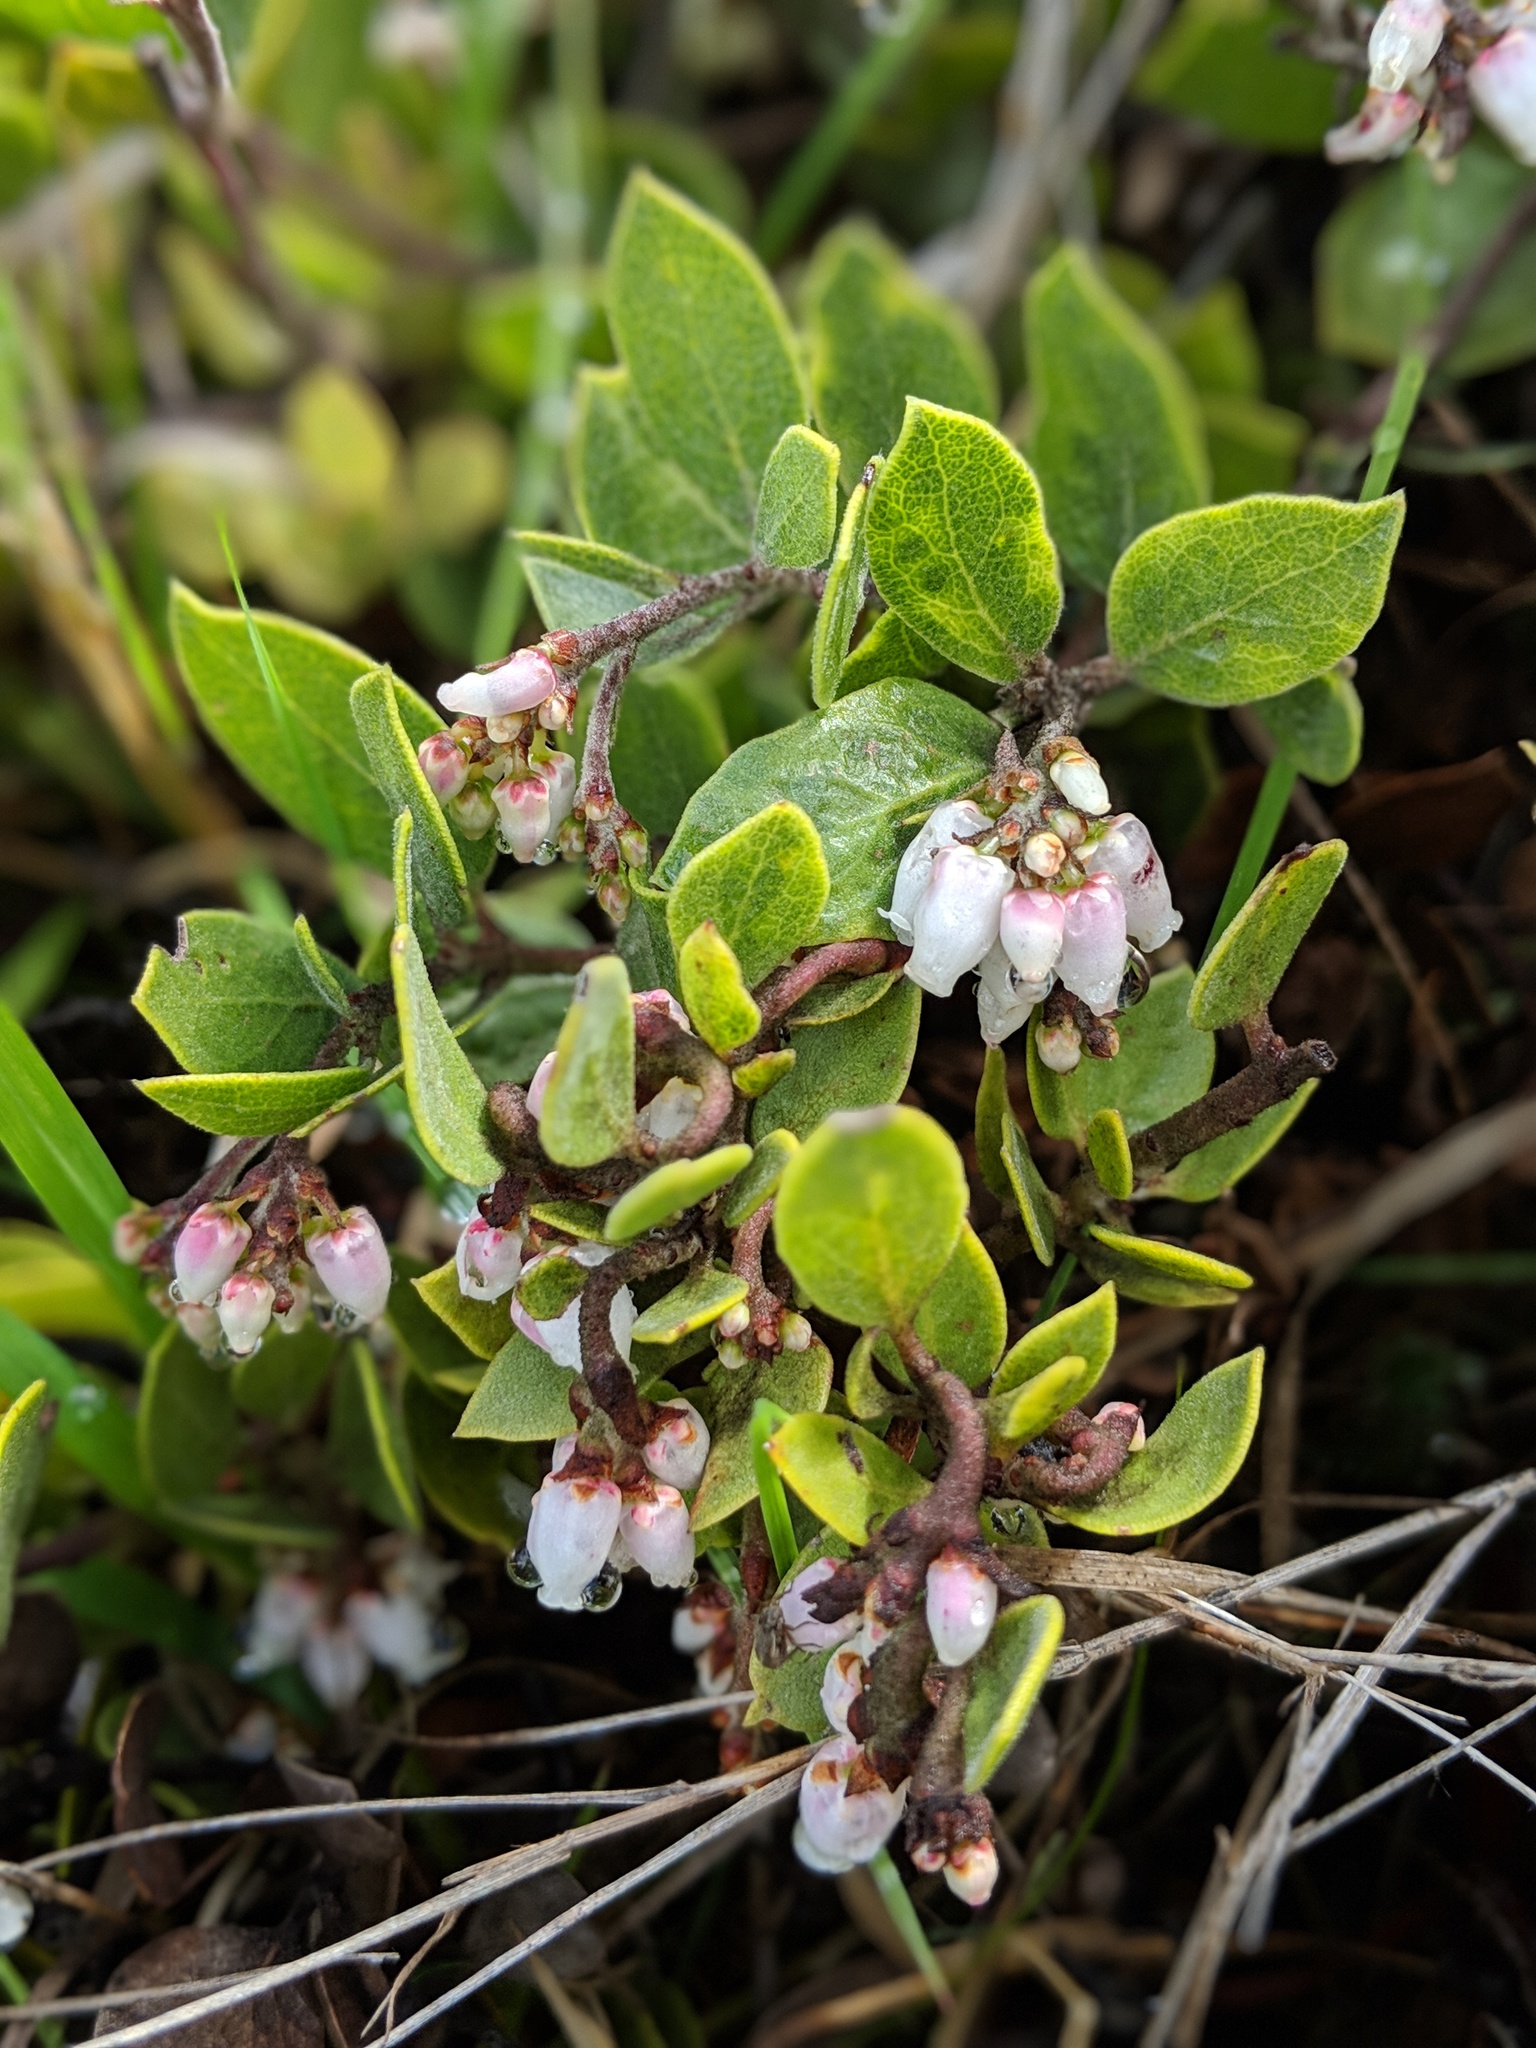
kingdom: Plantae
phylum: Tracheophyta
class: Magnoliopsida
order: Ericales
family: Ericaceae
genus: Arctostaphylos
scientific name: Arctostaphylos montana
